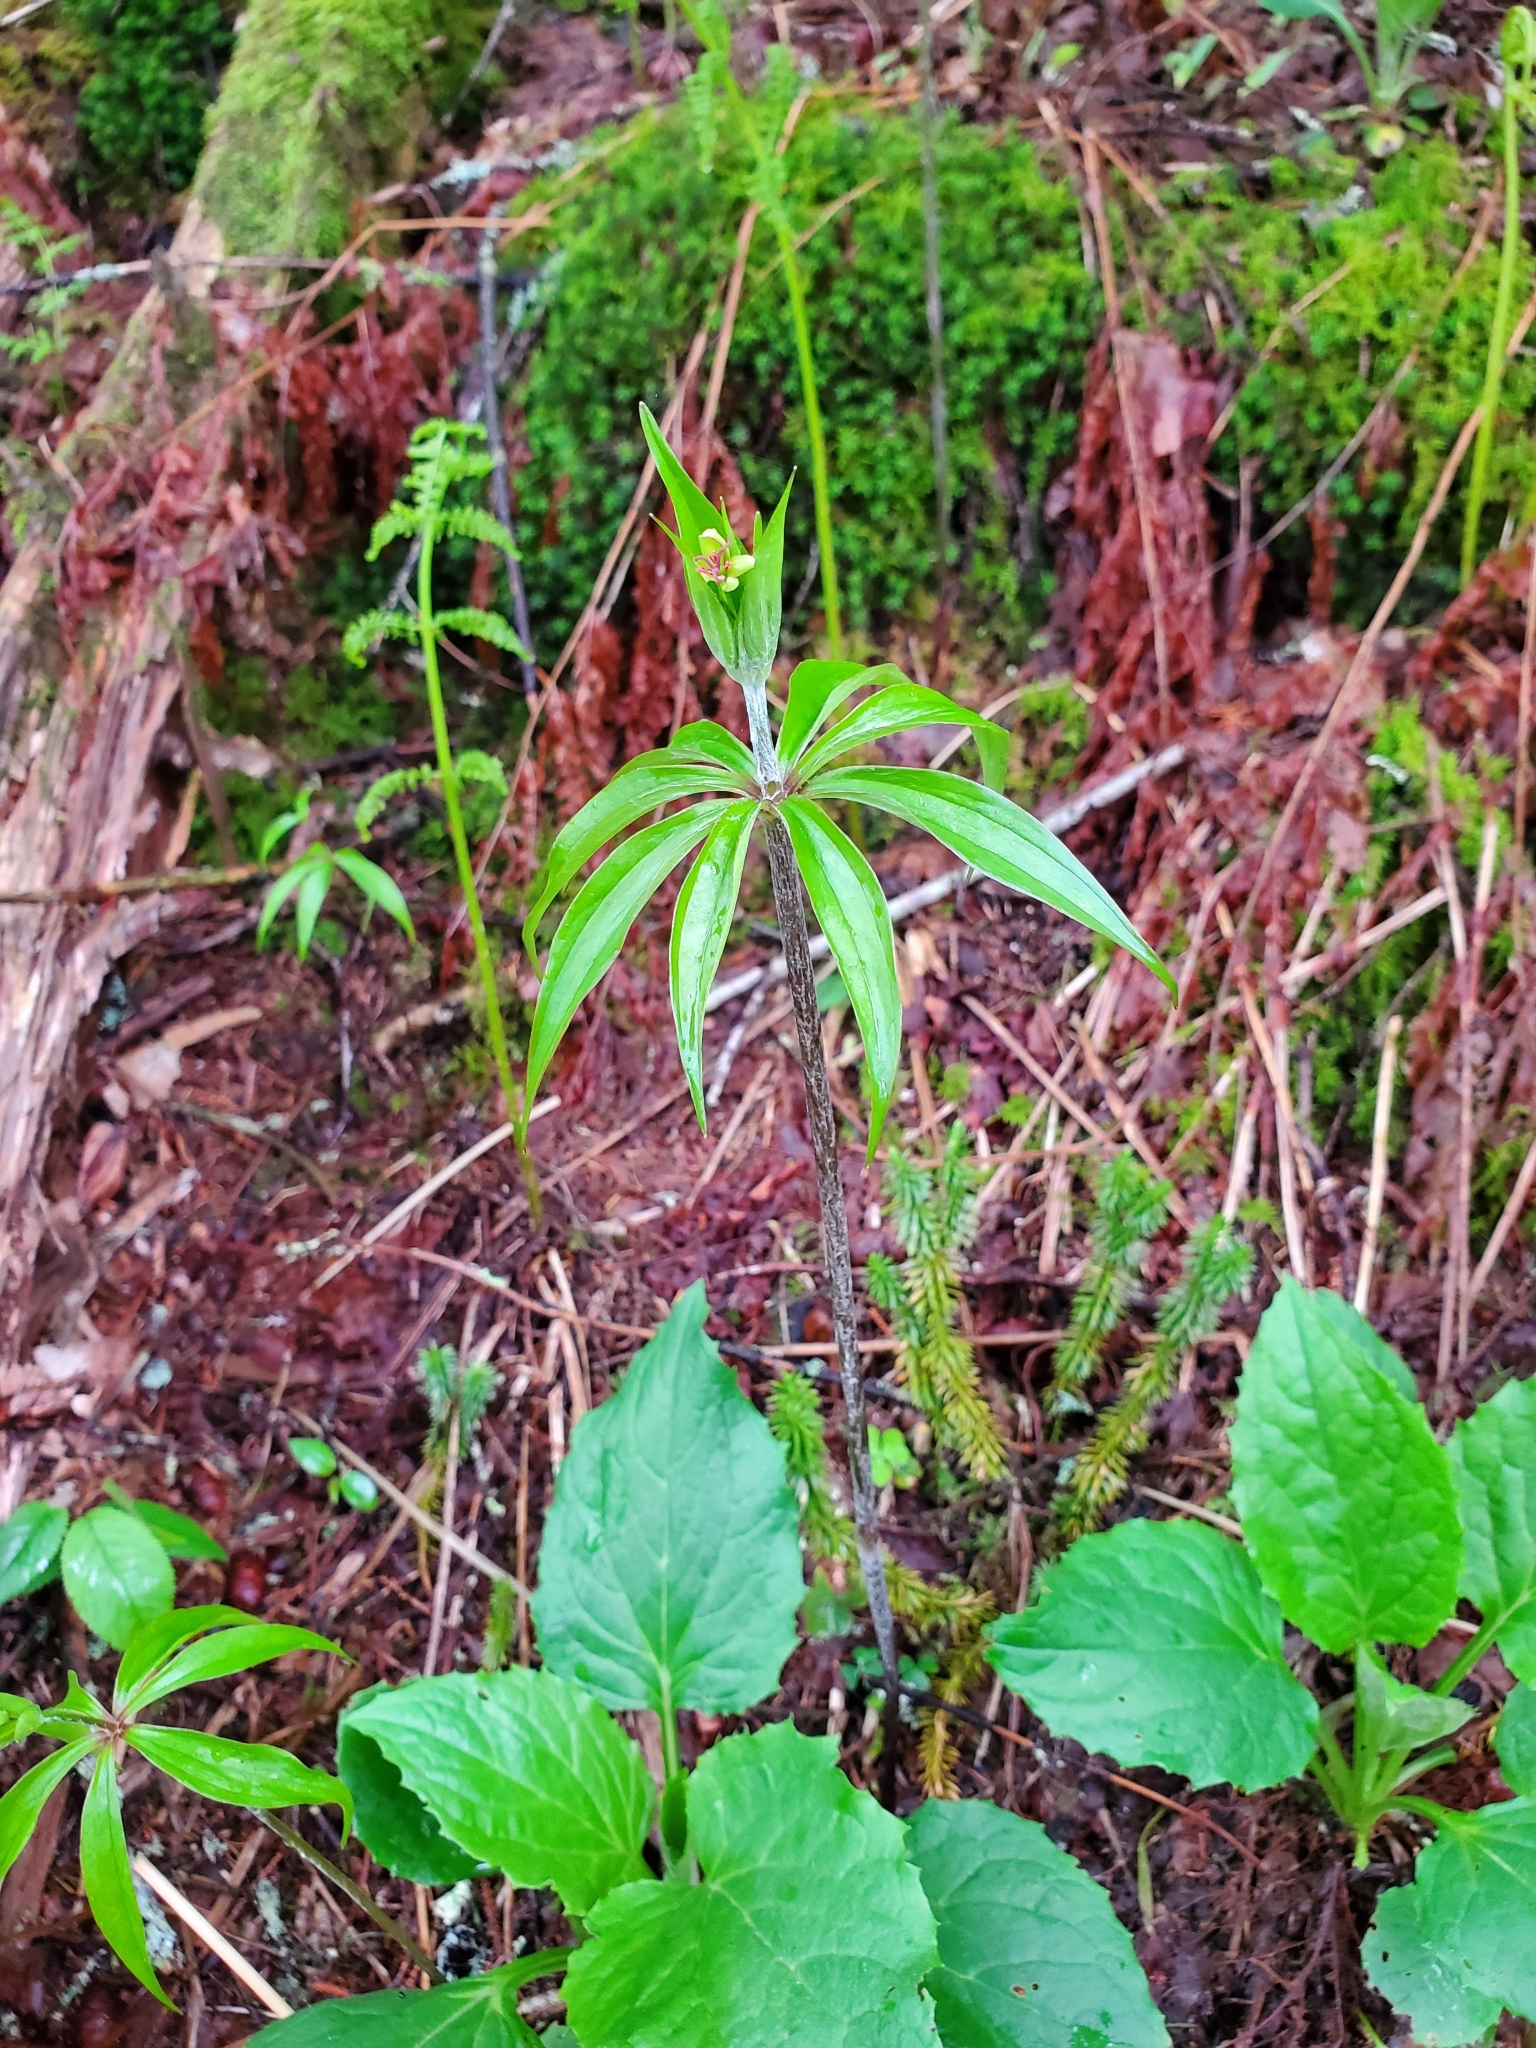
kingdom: Plantae
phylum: Tracheophyta
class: Liliopsida
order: Liliales
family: Liliaceae
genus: Medeola
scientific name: Medeola virginiana
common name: Indian cucumber-root
